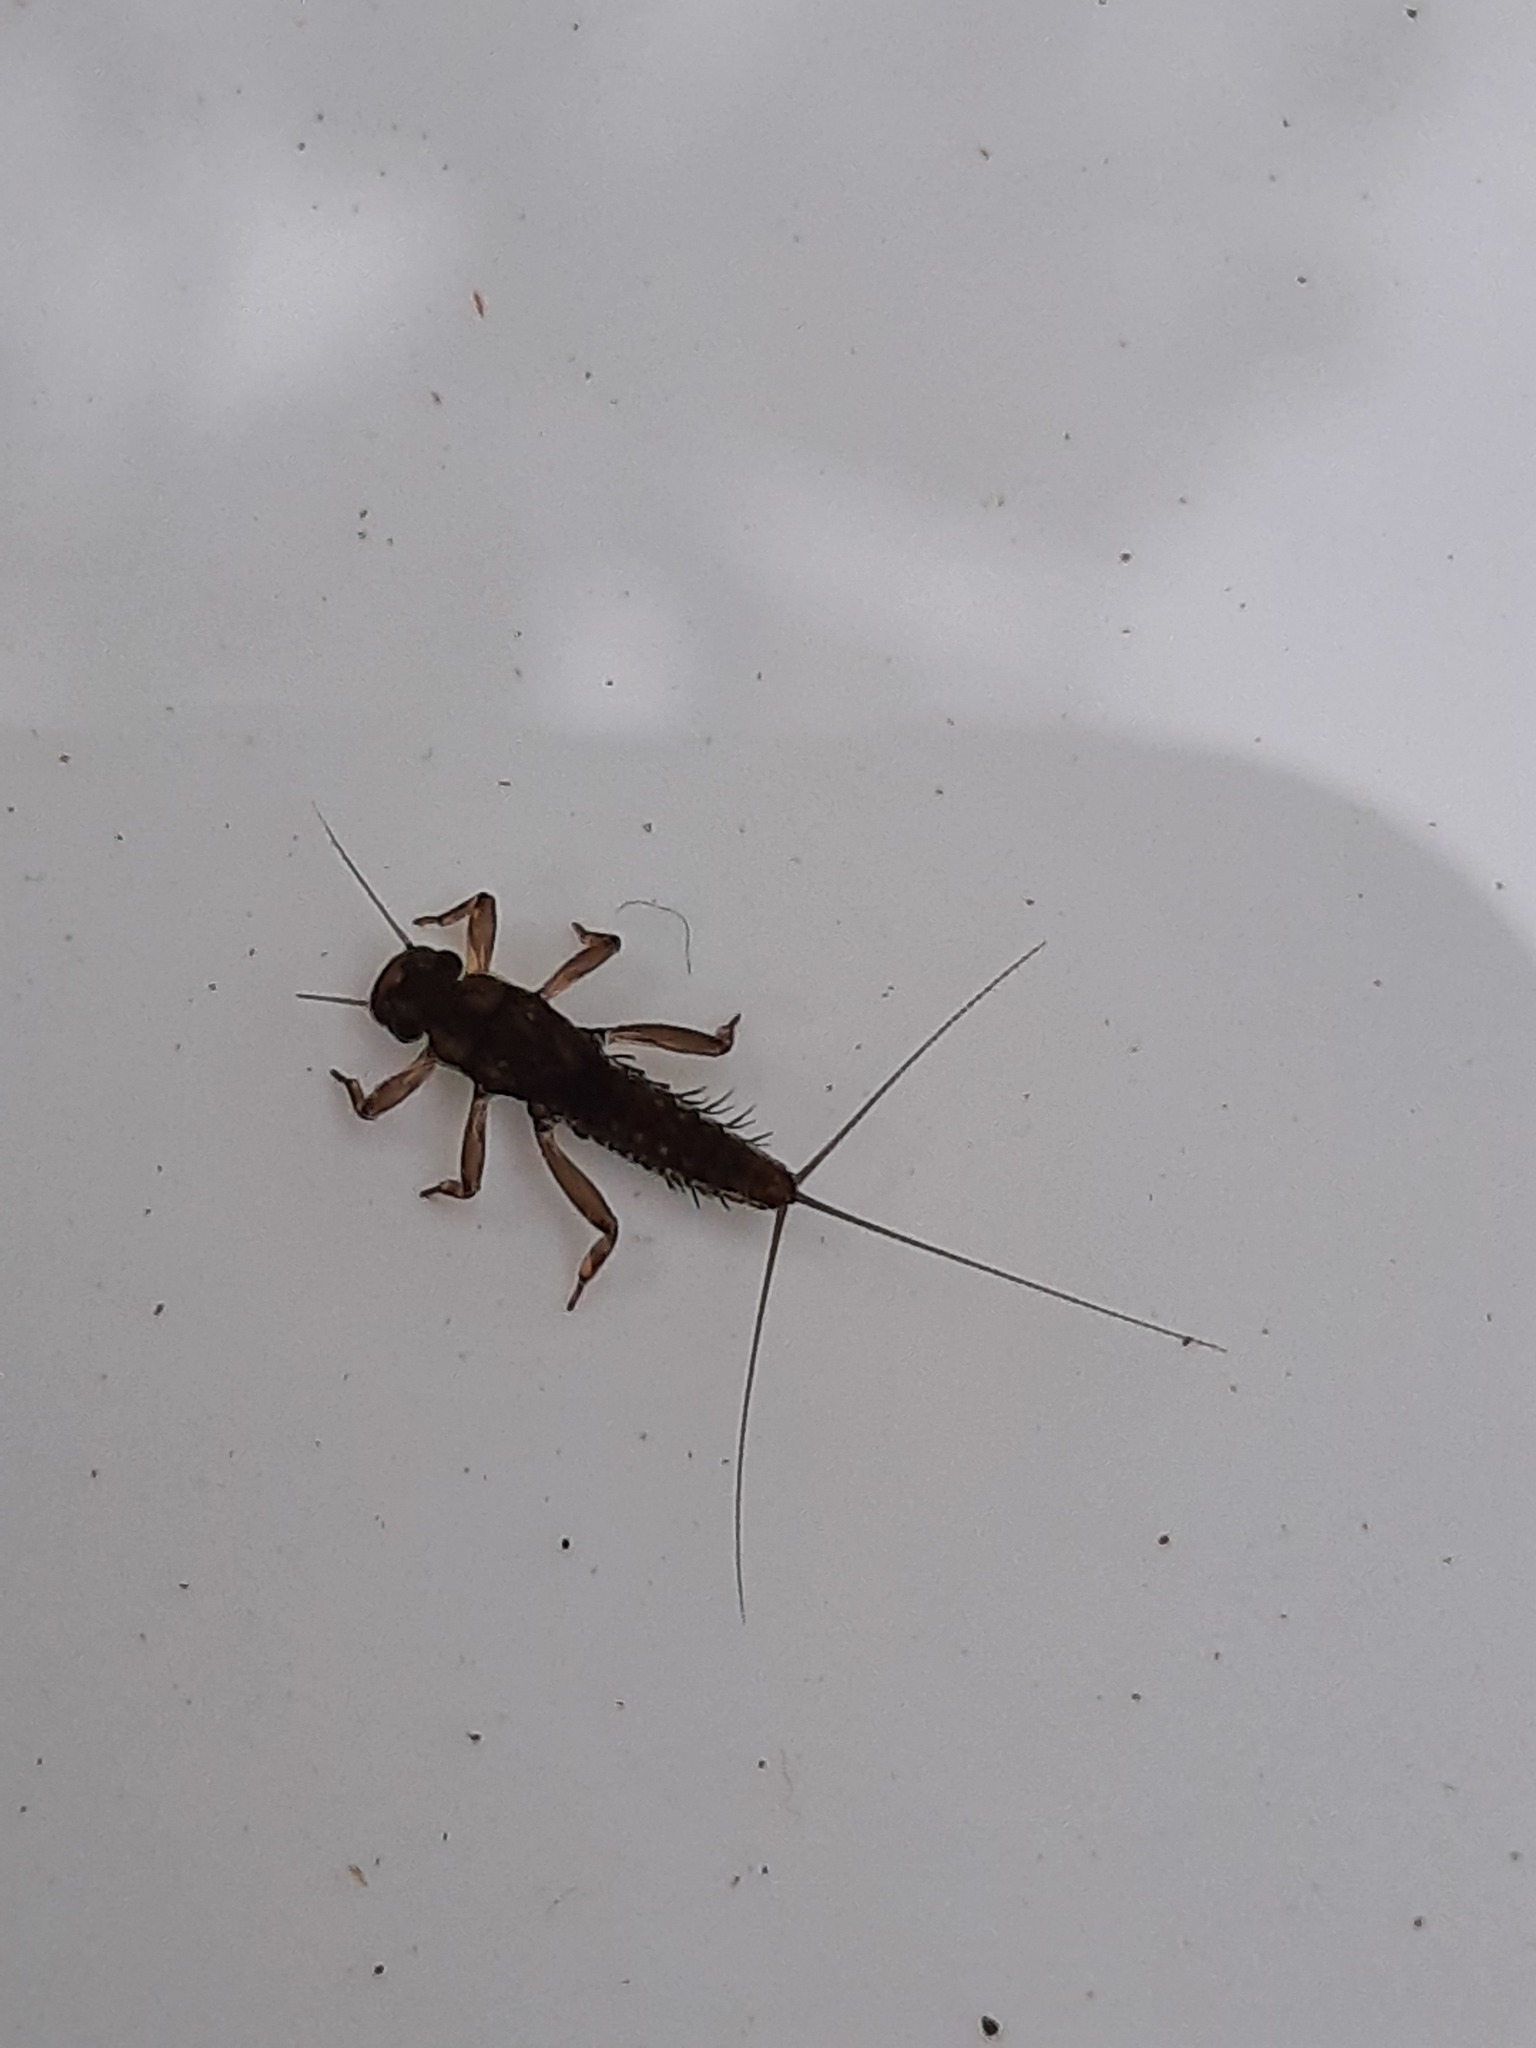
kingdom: Animalia
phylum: Arthropoda
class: Insecta
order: Ephemeroptera
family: Leptophlebiidae
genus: Austroclima
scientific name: Austroclima sepia
